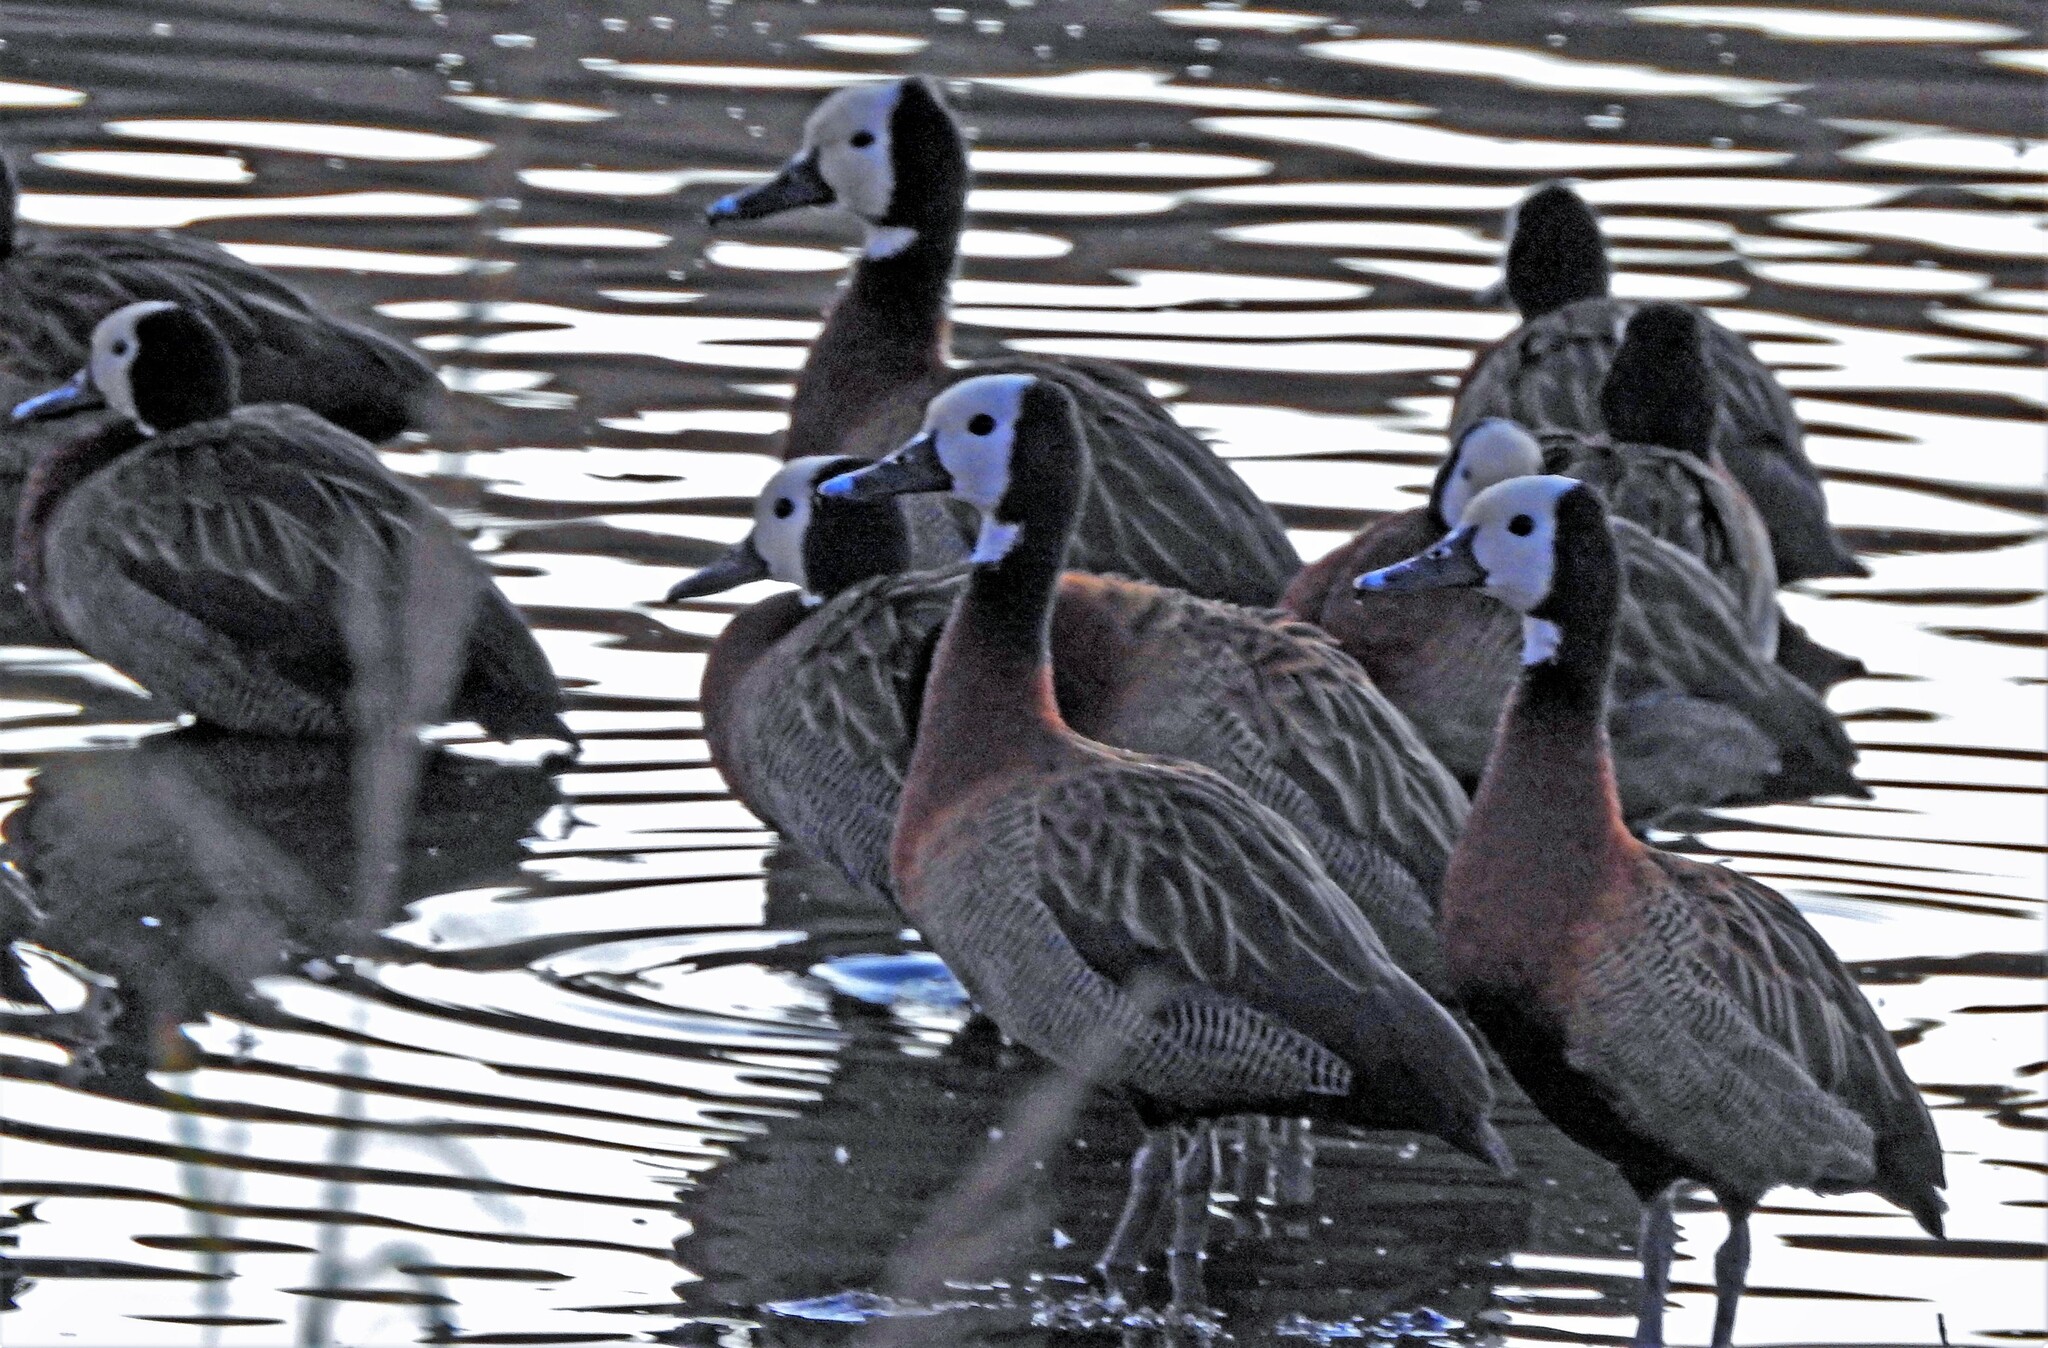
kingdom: Animalia
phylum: Chordata
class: Aves
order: Anseriformes
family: Anatidae
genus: Dendrocygna
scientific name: Dendrocygna viduata
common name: White-faced whistling duck
